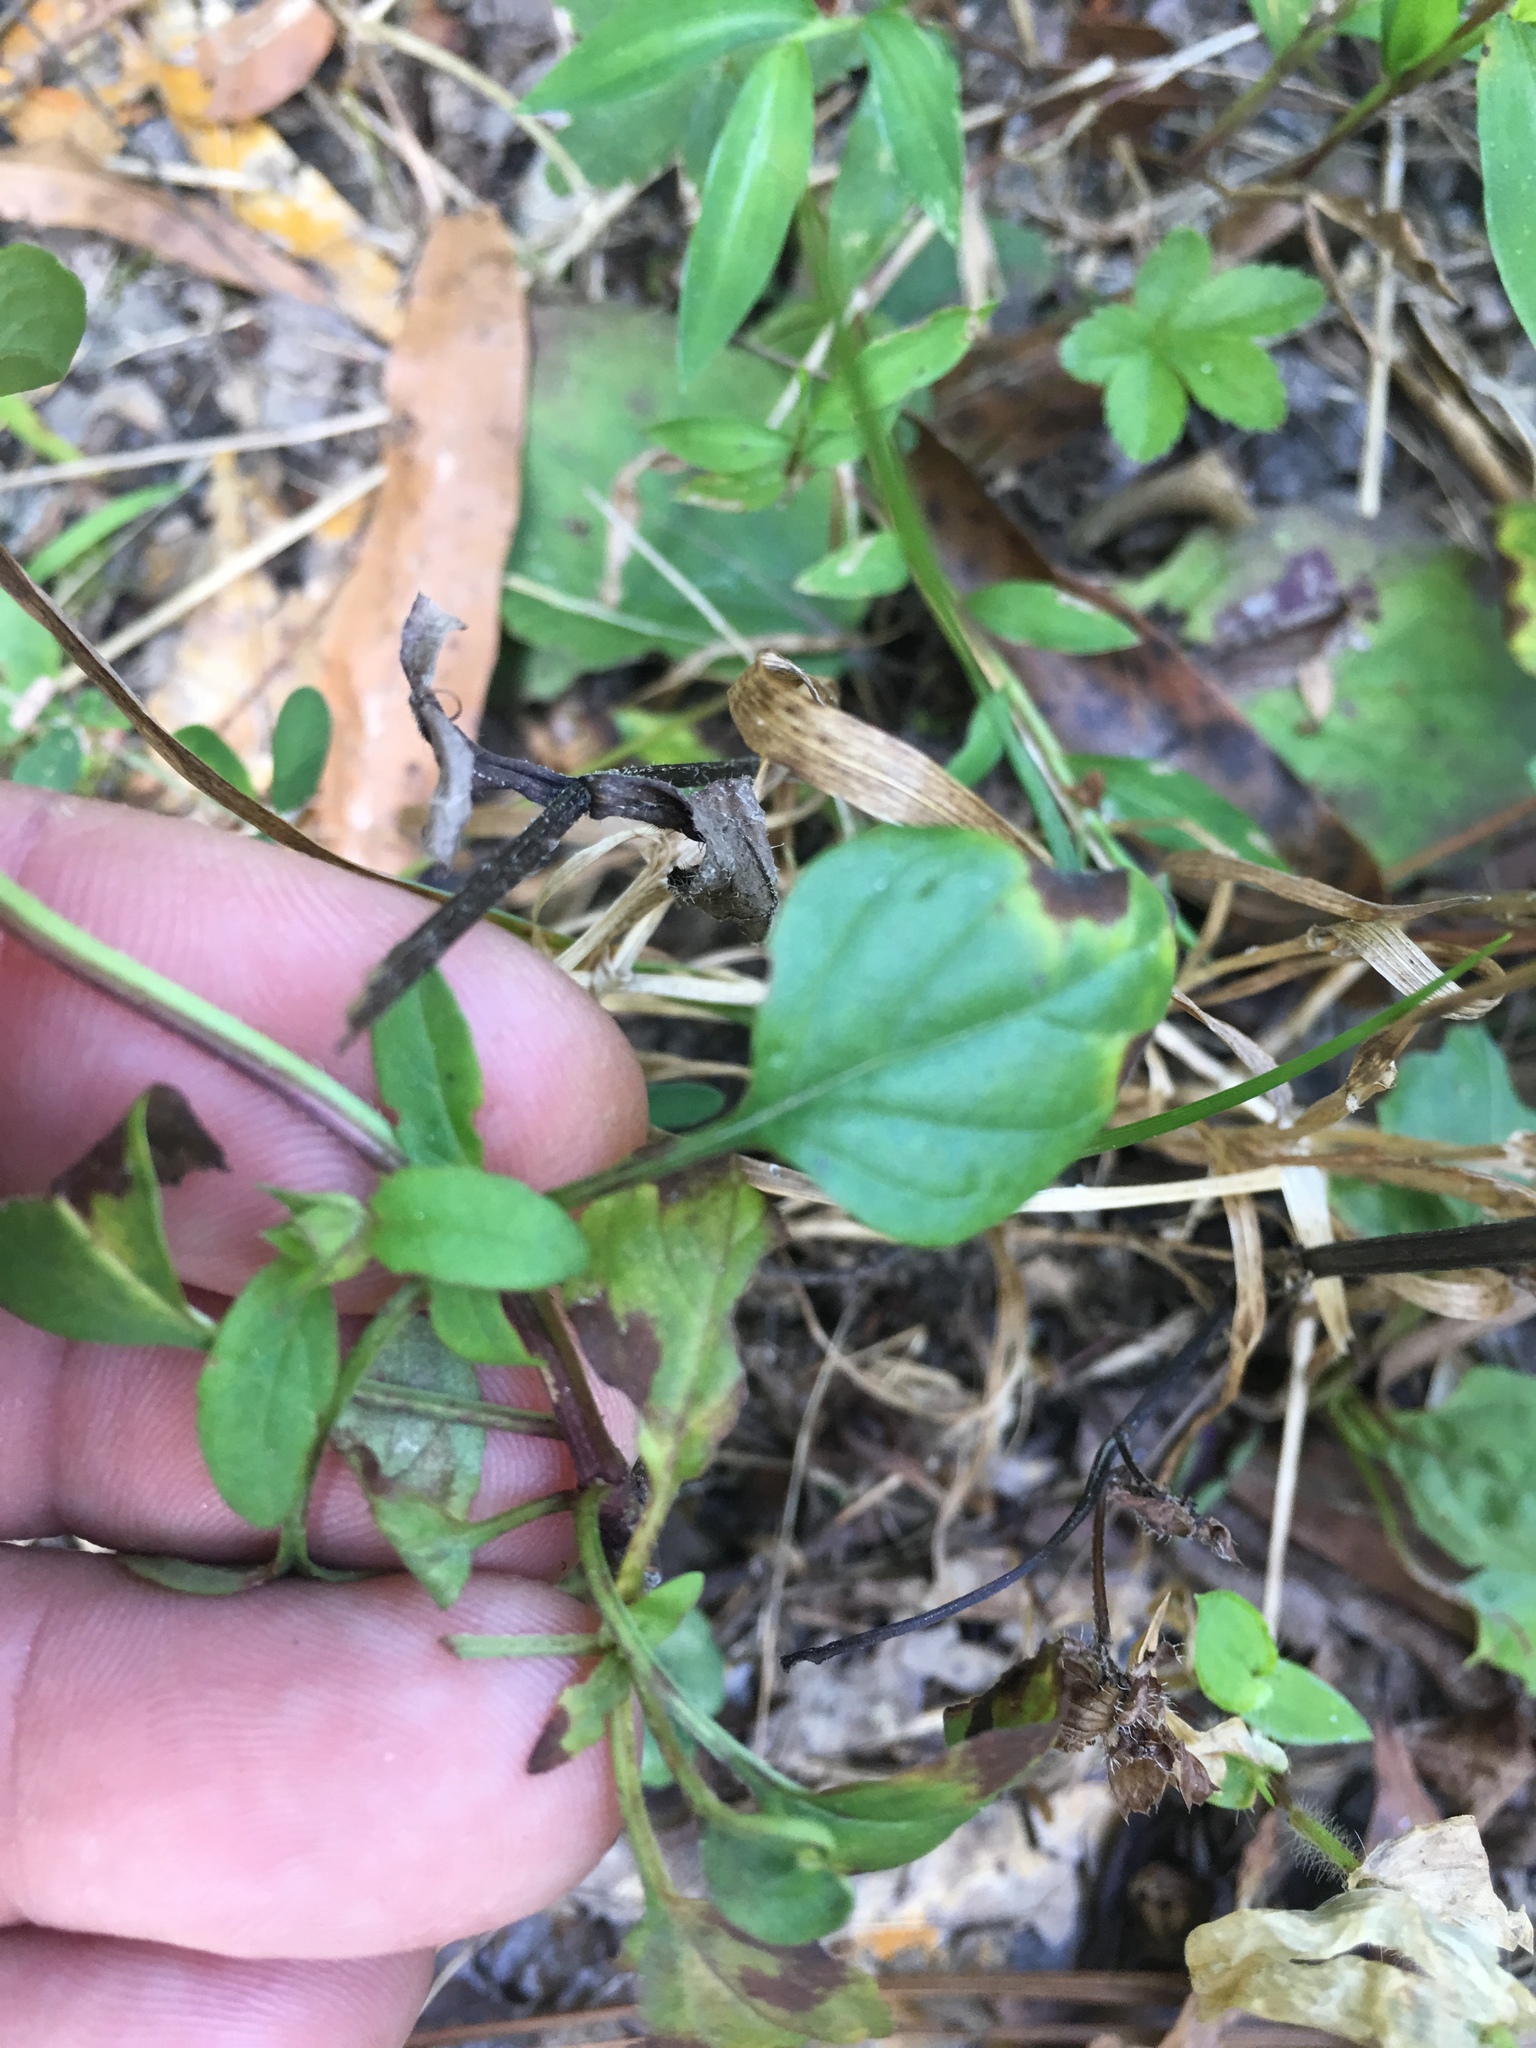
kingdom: Plantae
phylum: Tracheophyta
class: Magnoliopsida
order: Lamiales
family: Lamiaceae
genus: Prunella
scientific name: Prunella vulgaris
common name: Heal-all
